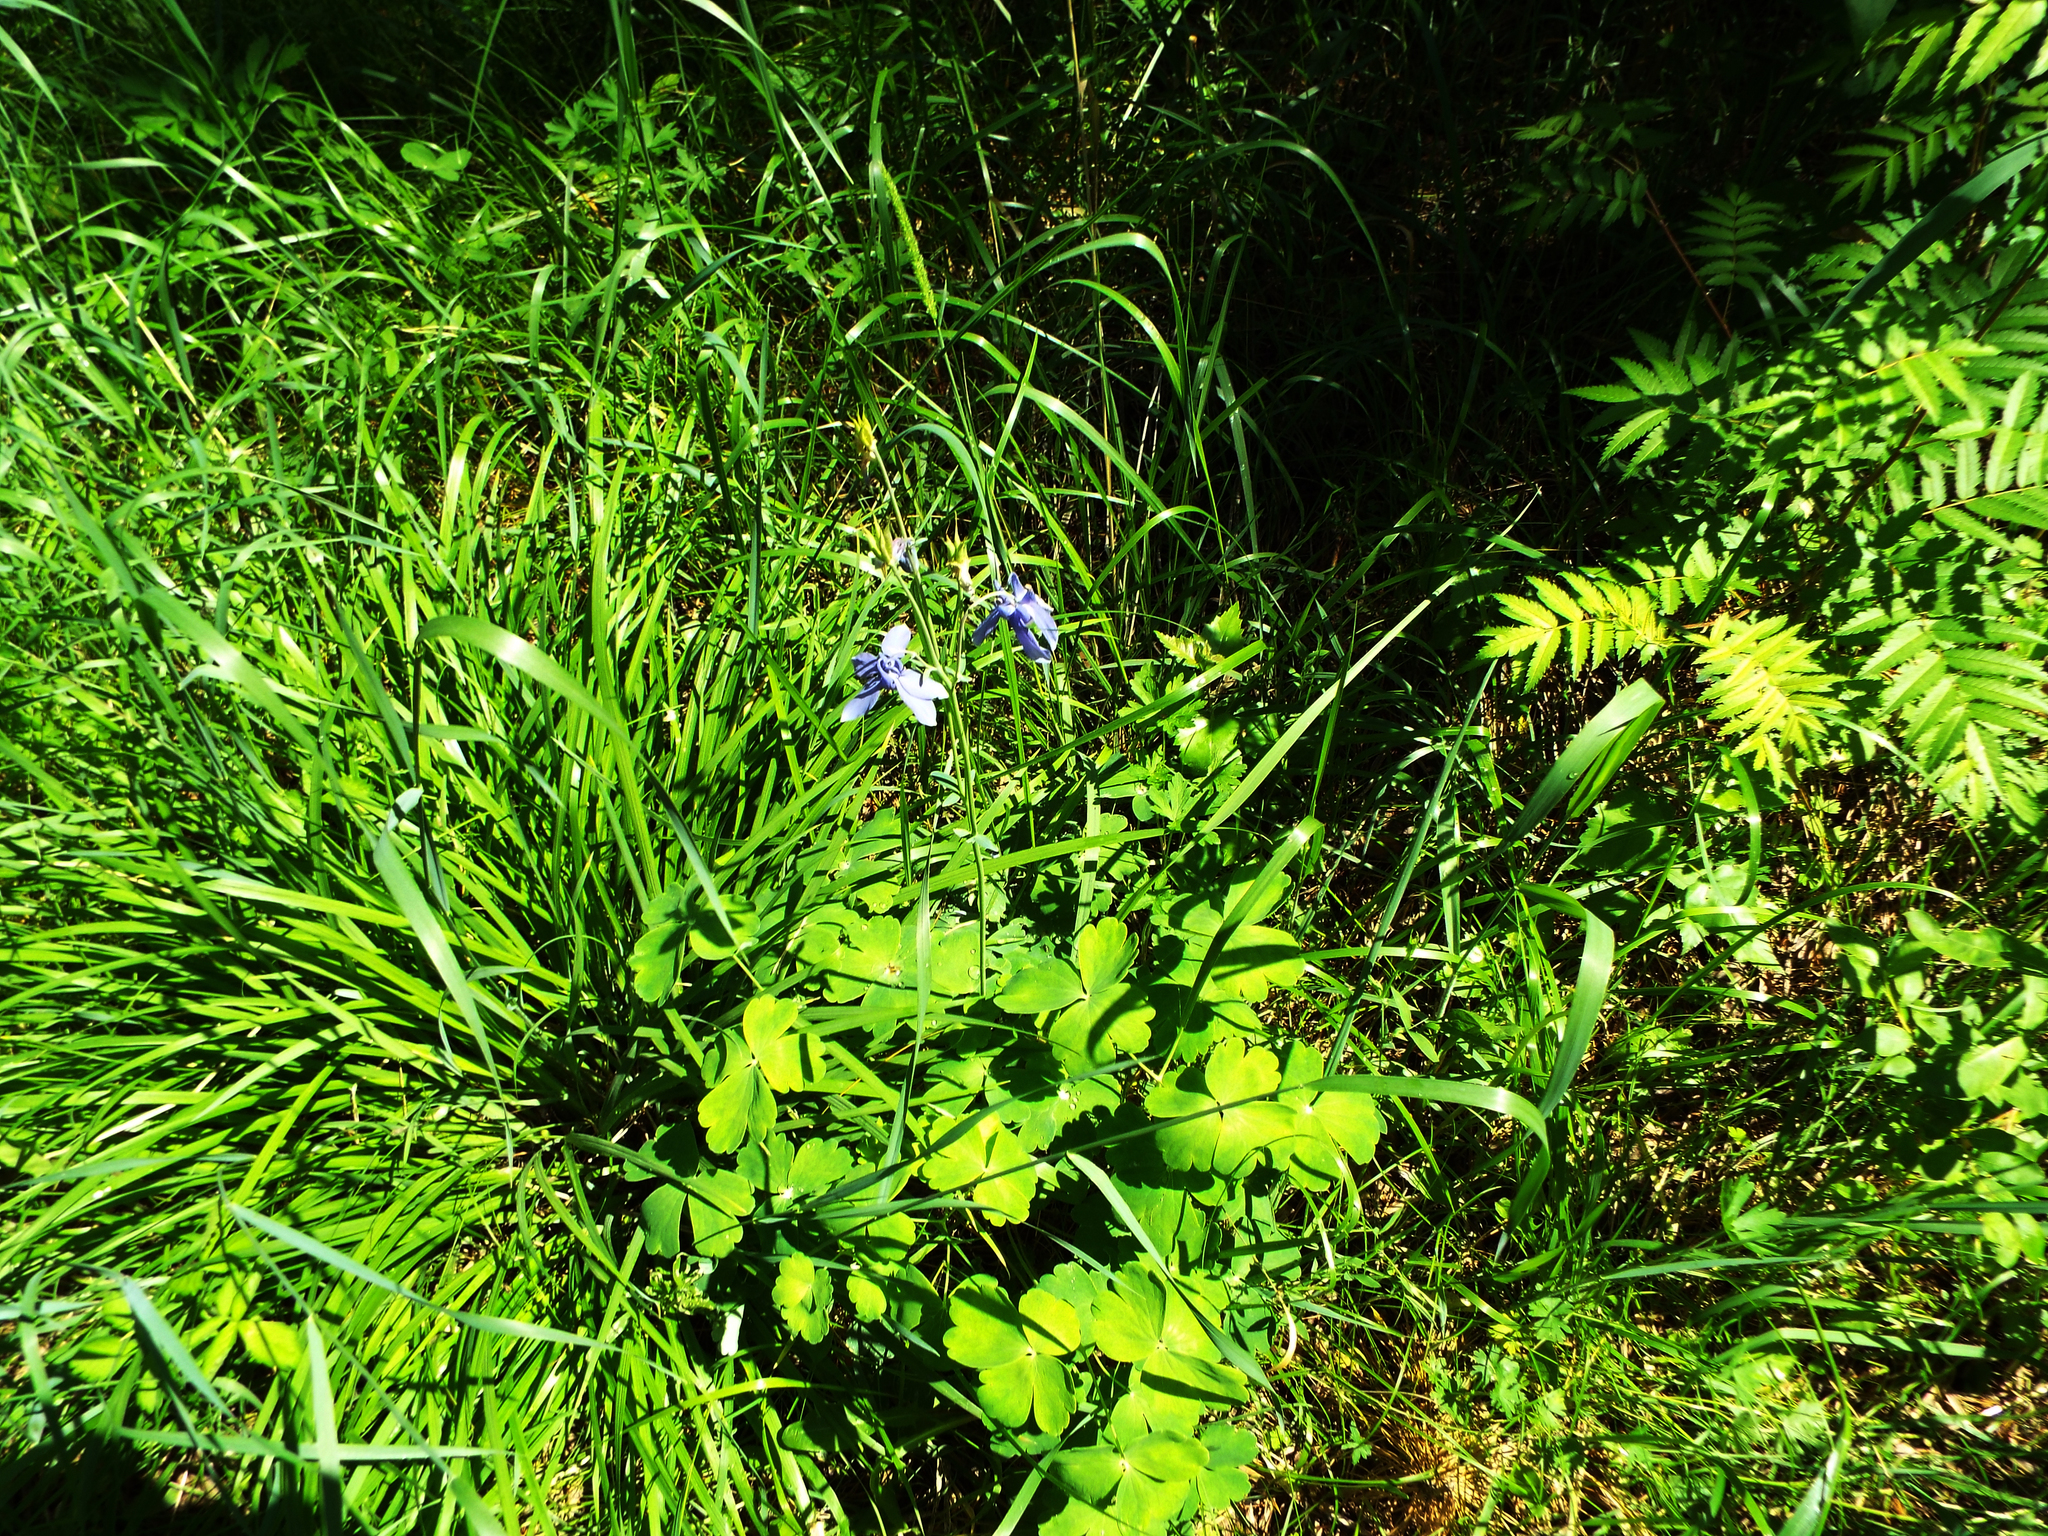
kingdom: Plantae
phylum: Tracheophyta
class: Magnoliopsida
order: Ranunculales
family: Ranunculaceae
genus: Aquilegia
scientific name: Aquilegia sibirica
